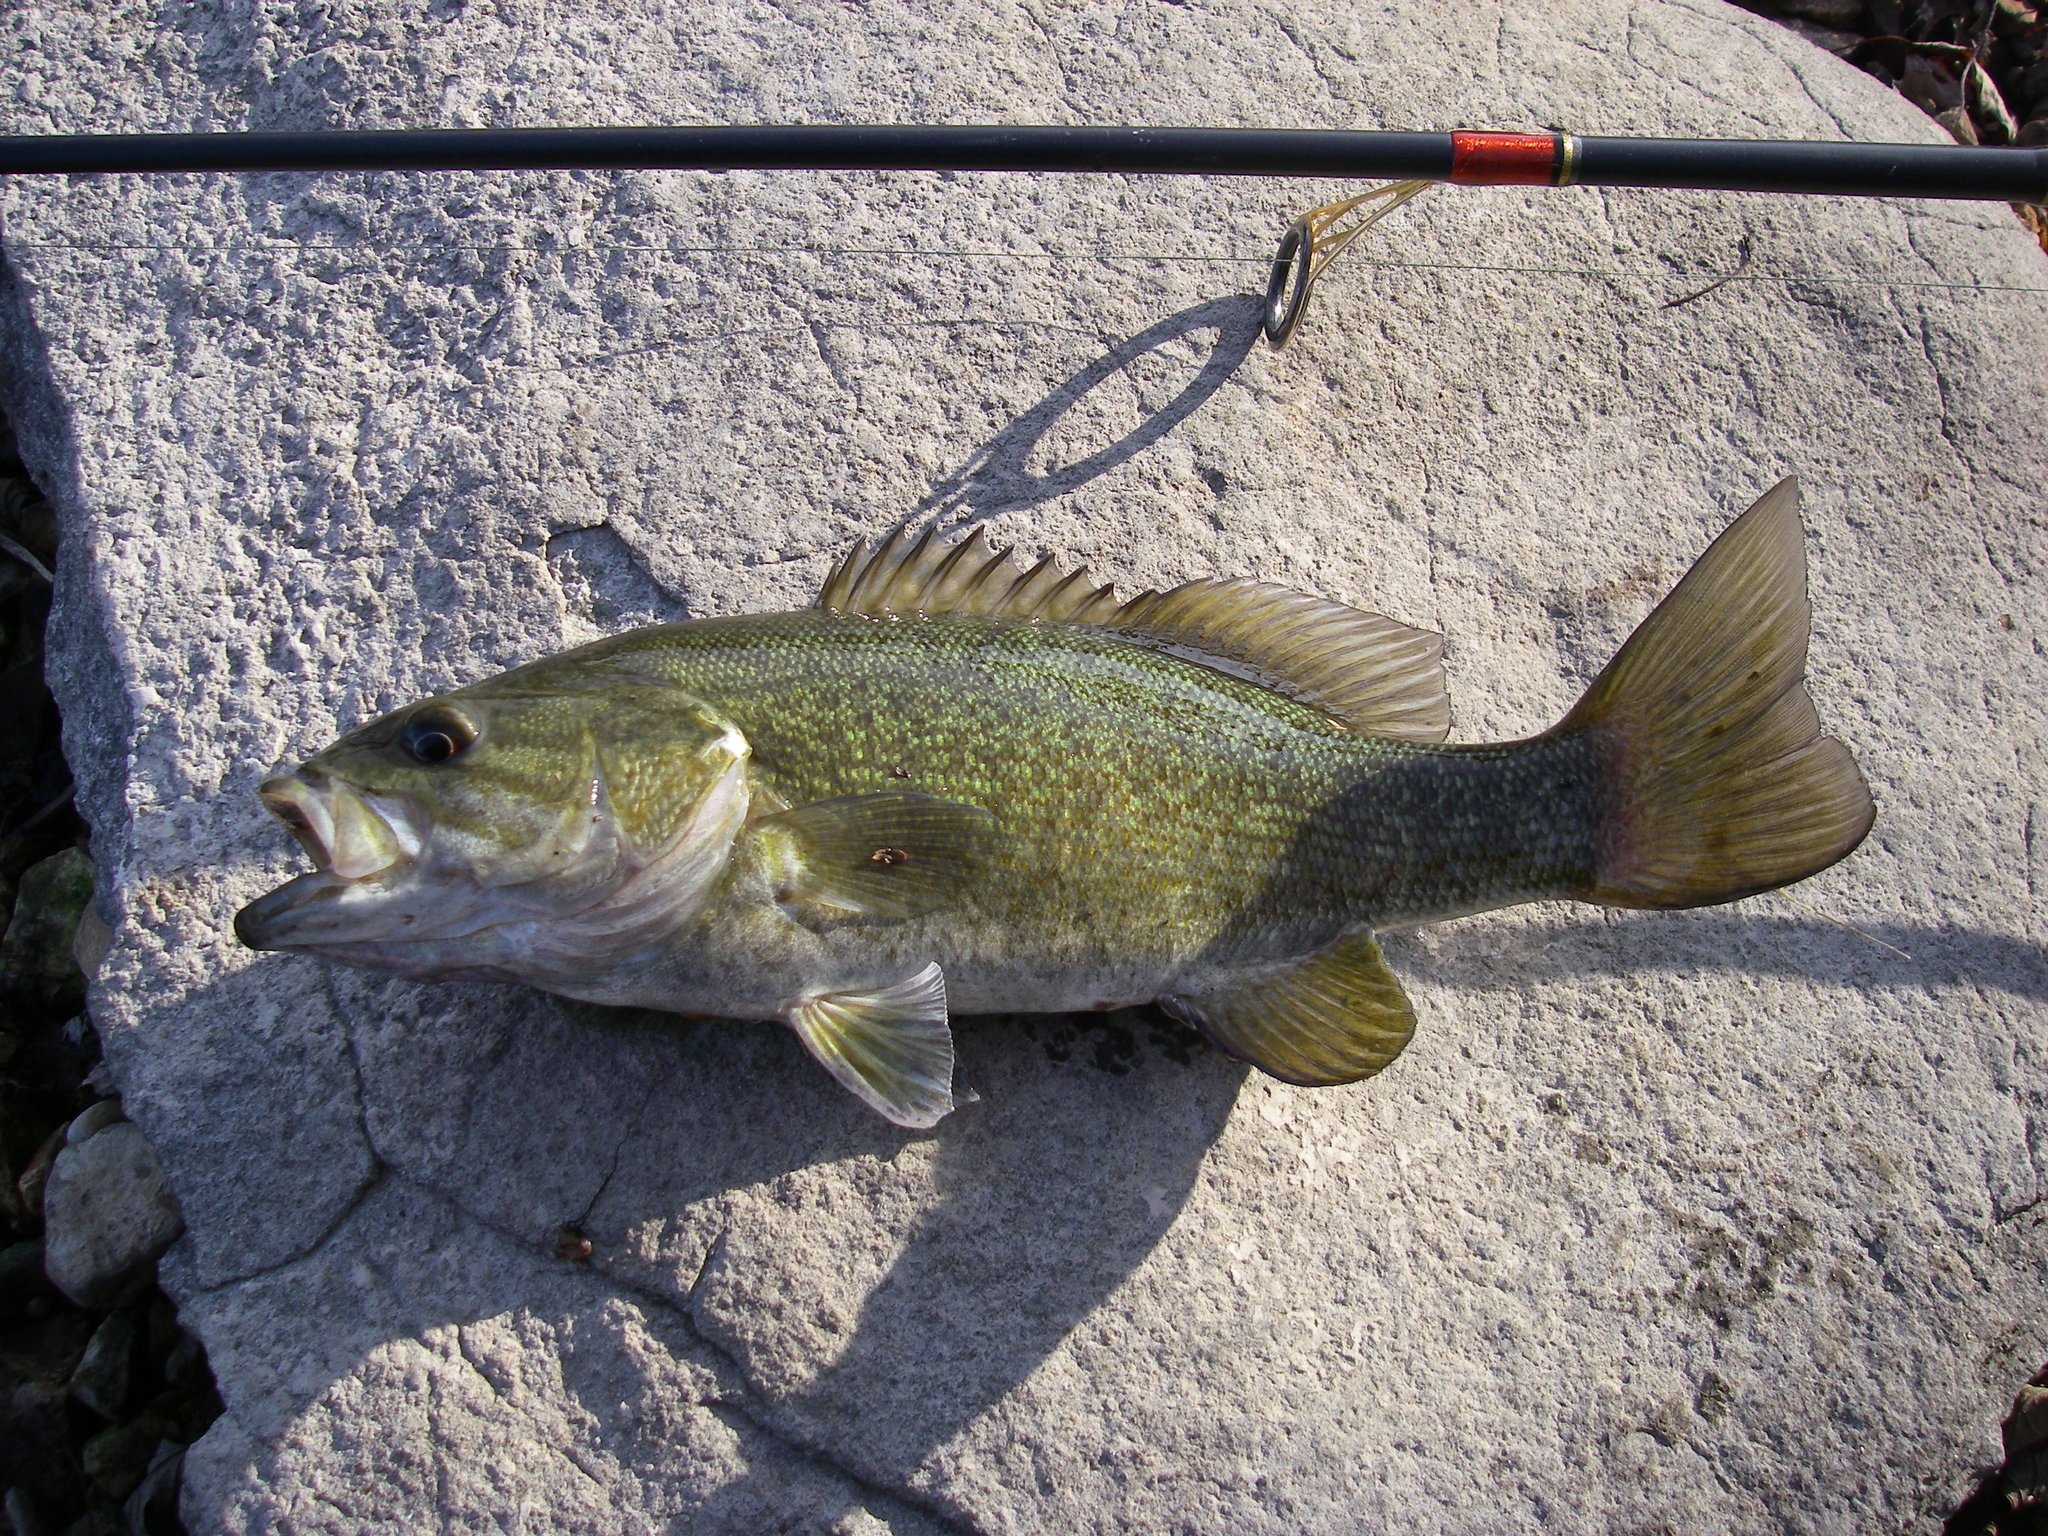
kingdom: Animalia
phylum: Chordata
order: Perciformes
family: Centrarchidae
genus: Micropterus
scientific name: Micropterus dolomieu
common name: Smallmouth bass
